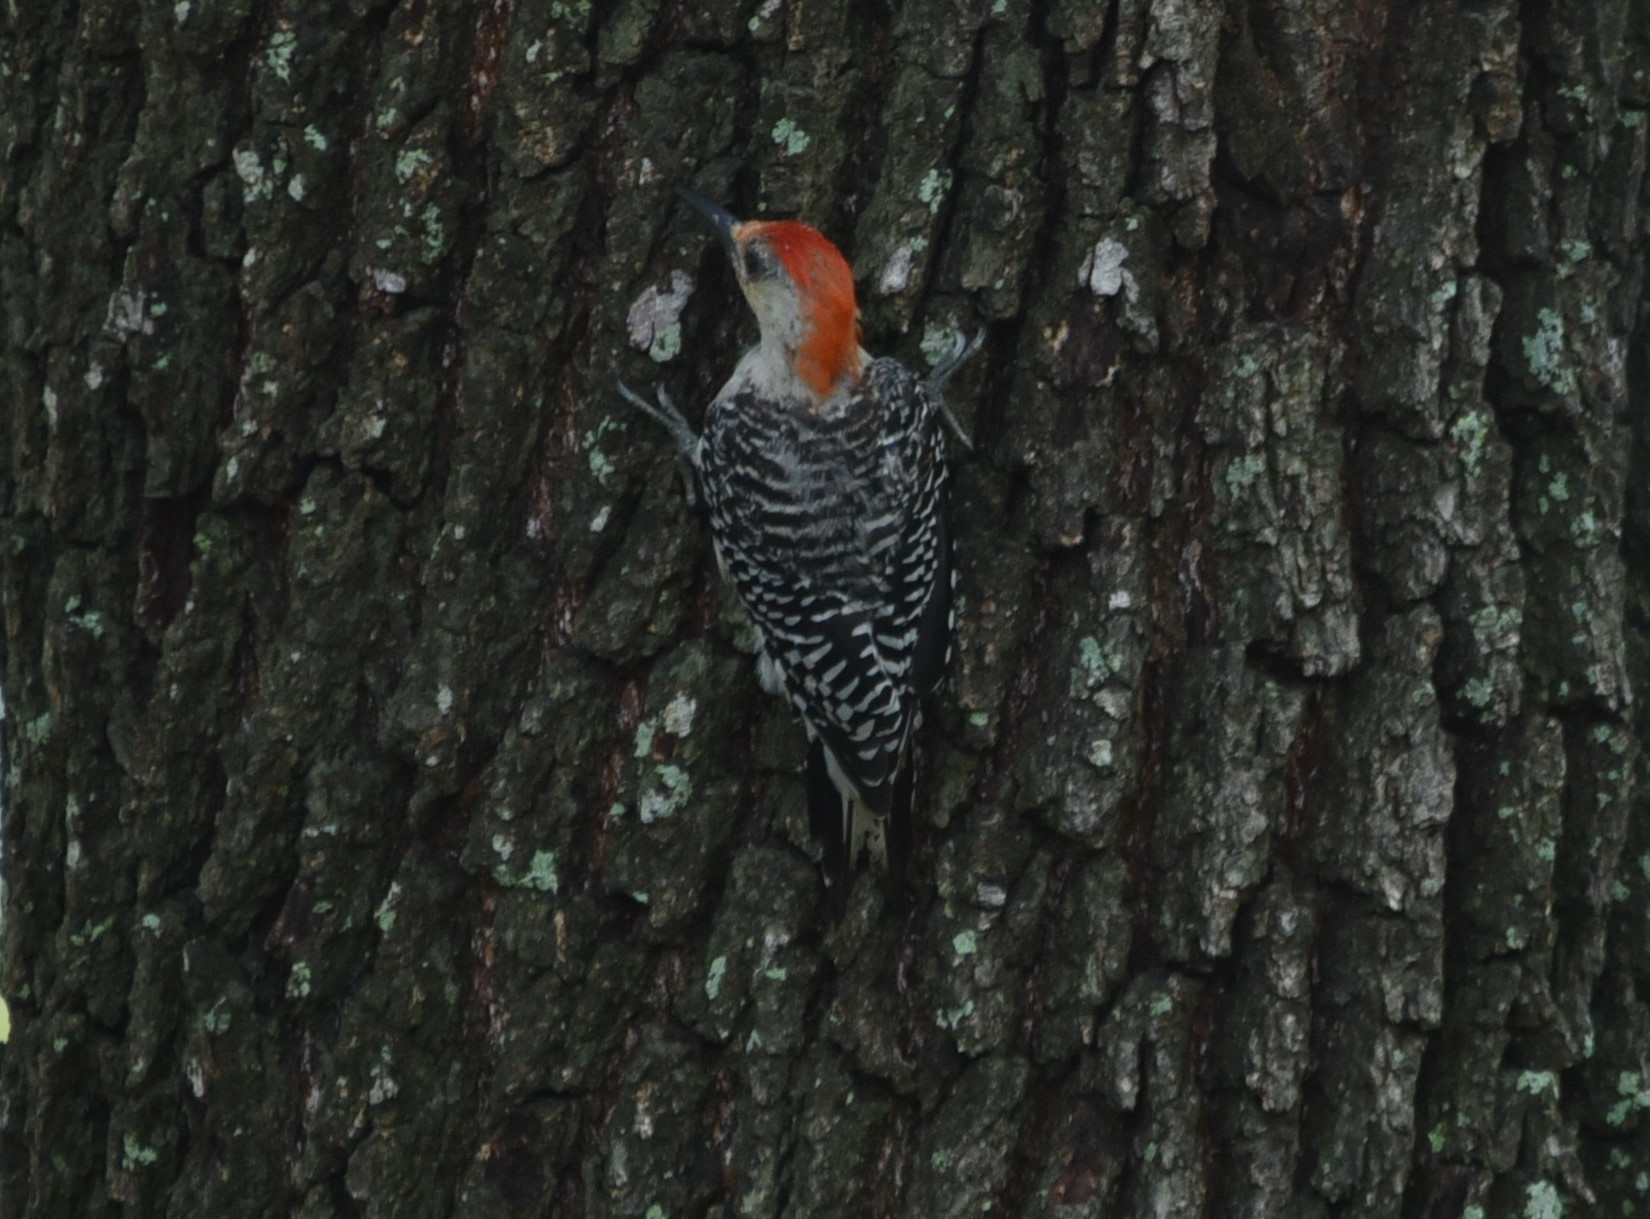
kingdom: Animalia
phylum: Chordata
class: Aves
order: Piciformes
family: Picidae
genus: Melanerpes
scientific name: Melanerpes carolinus
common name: Red-bellied woodpecker
